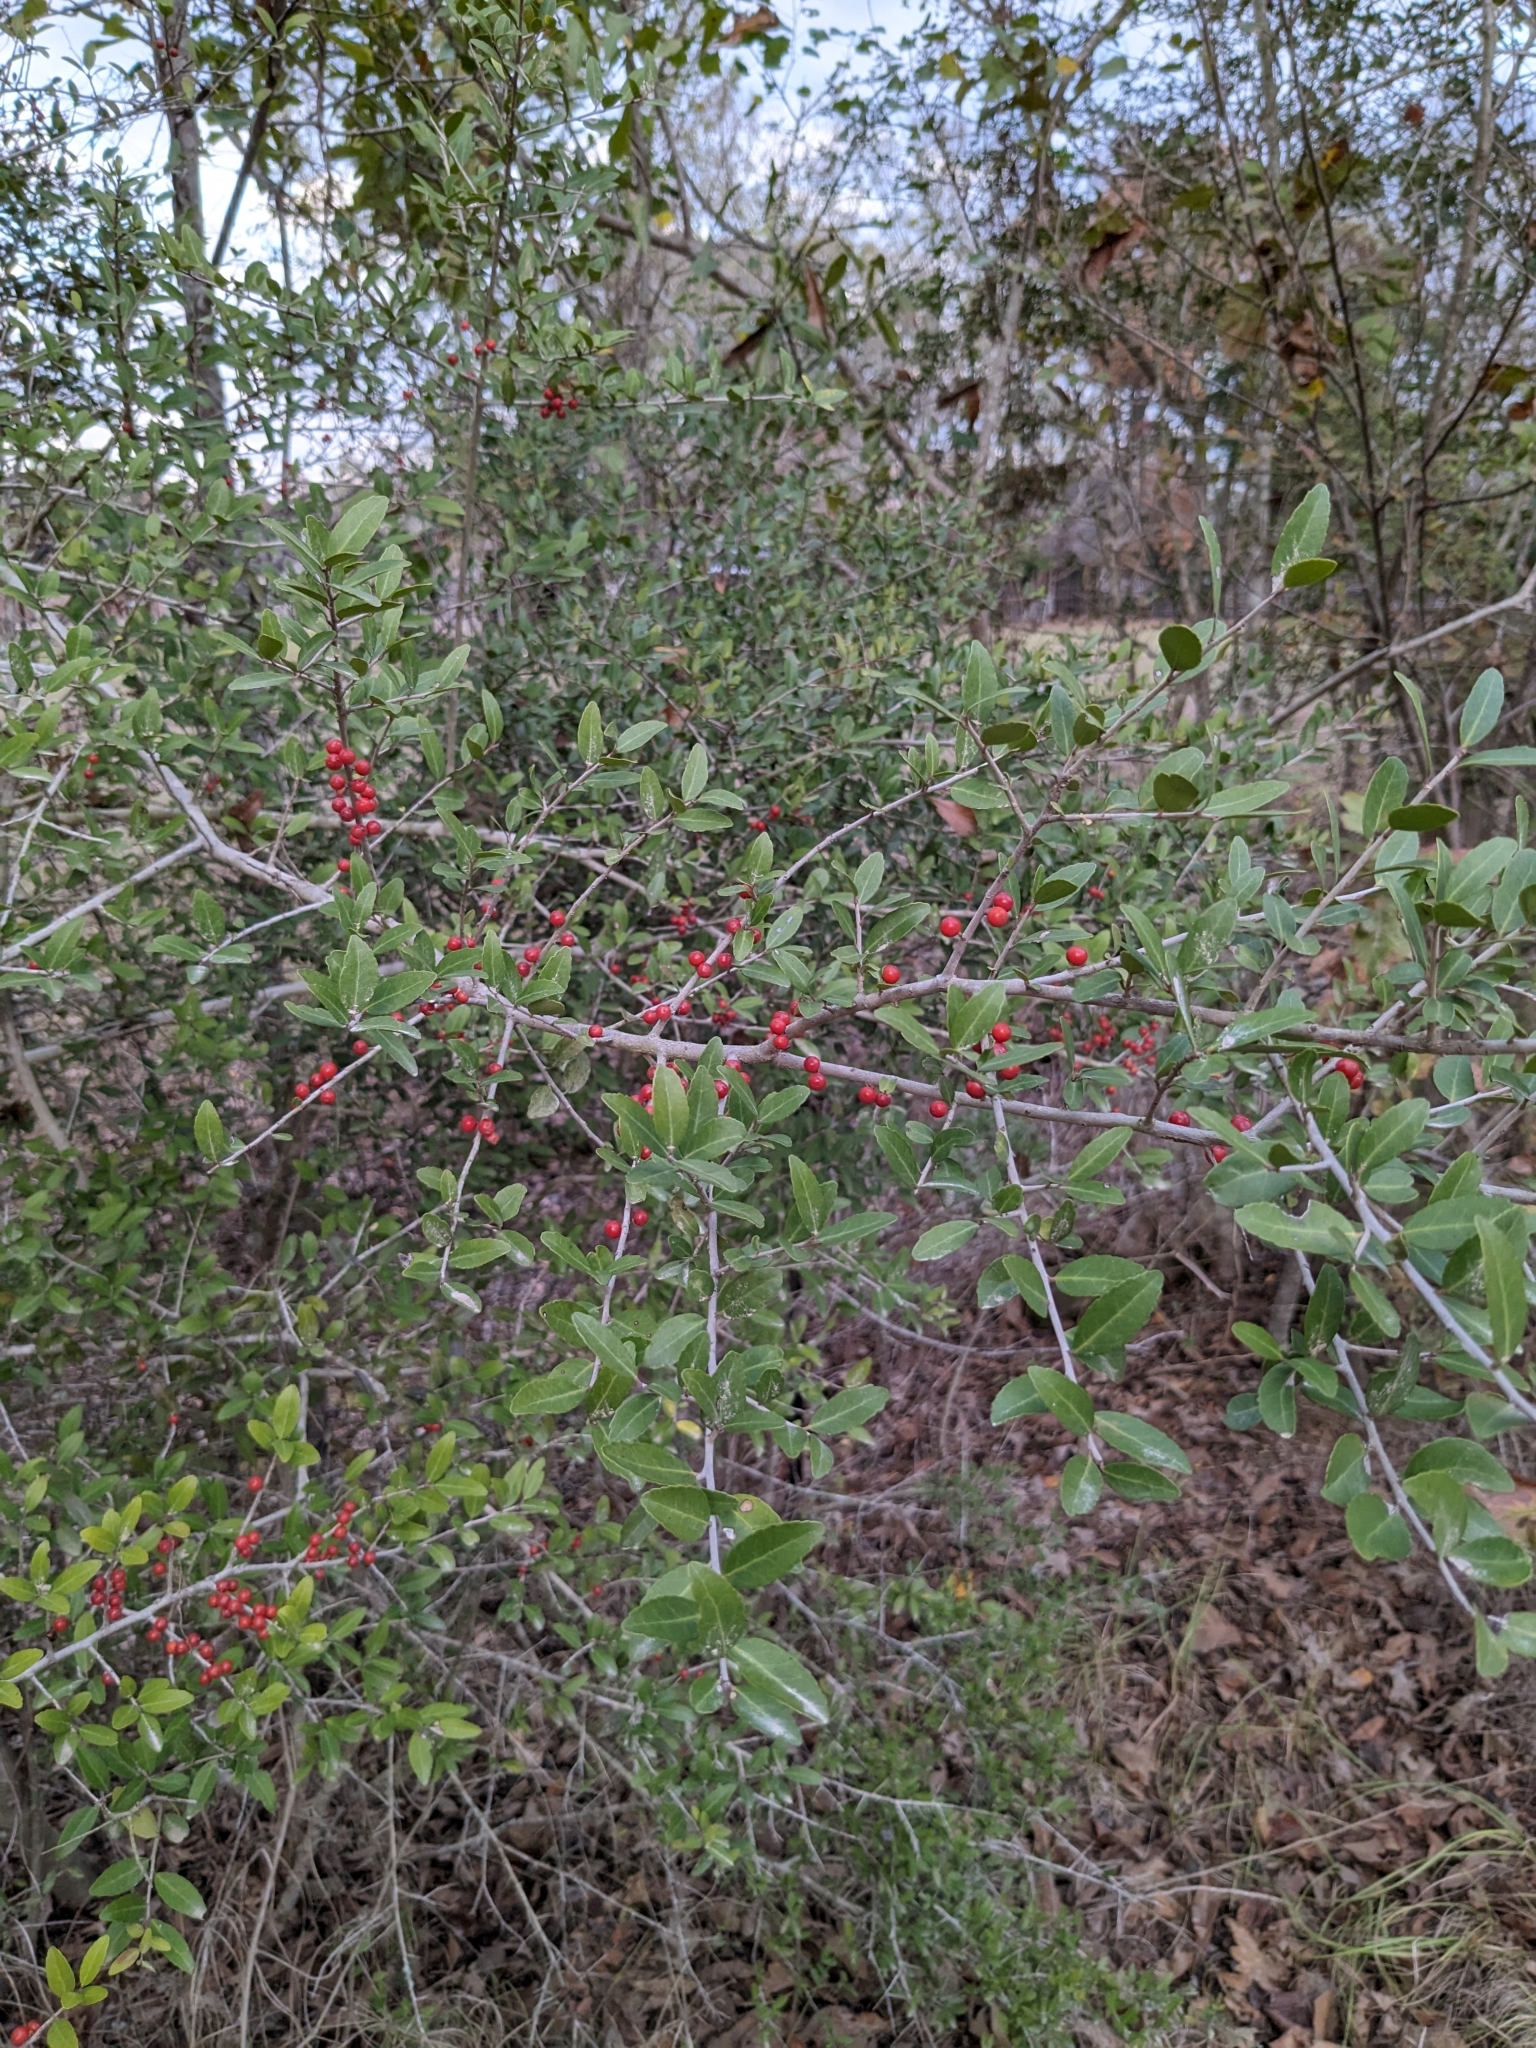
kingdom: Plantae
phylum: Tracheophyta
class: Magnoliopsida
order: Aquifoliales
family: Aquifoliaceae
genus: Ilex
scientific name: Ilex vomitoria
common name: Yaupon holly
